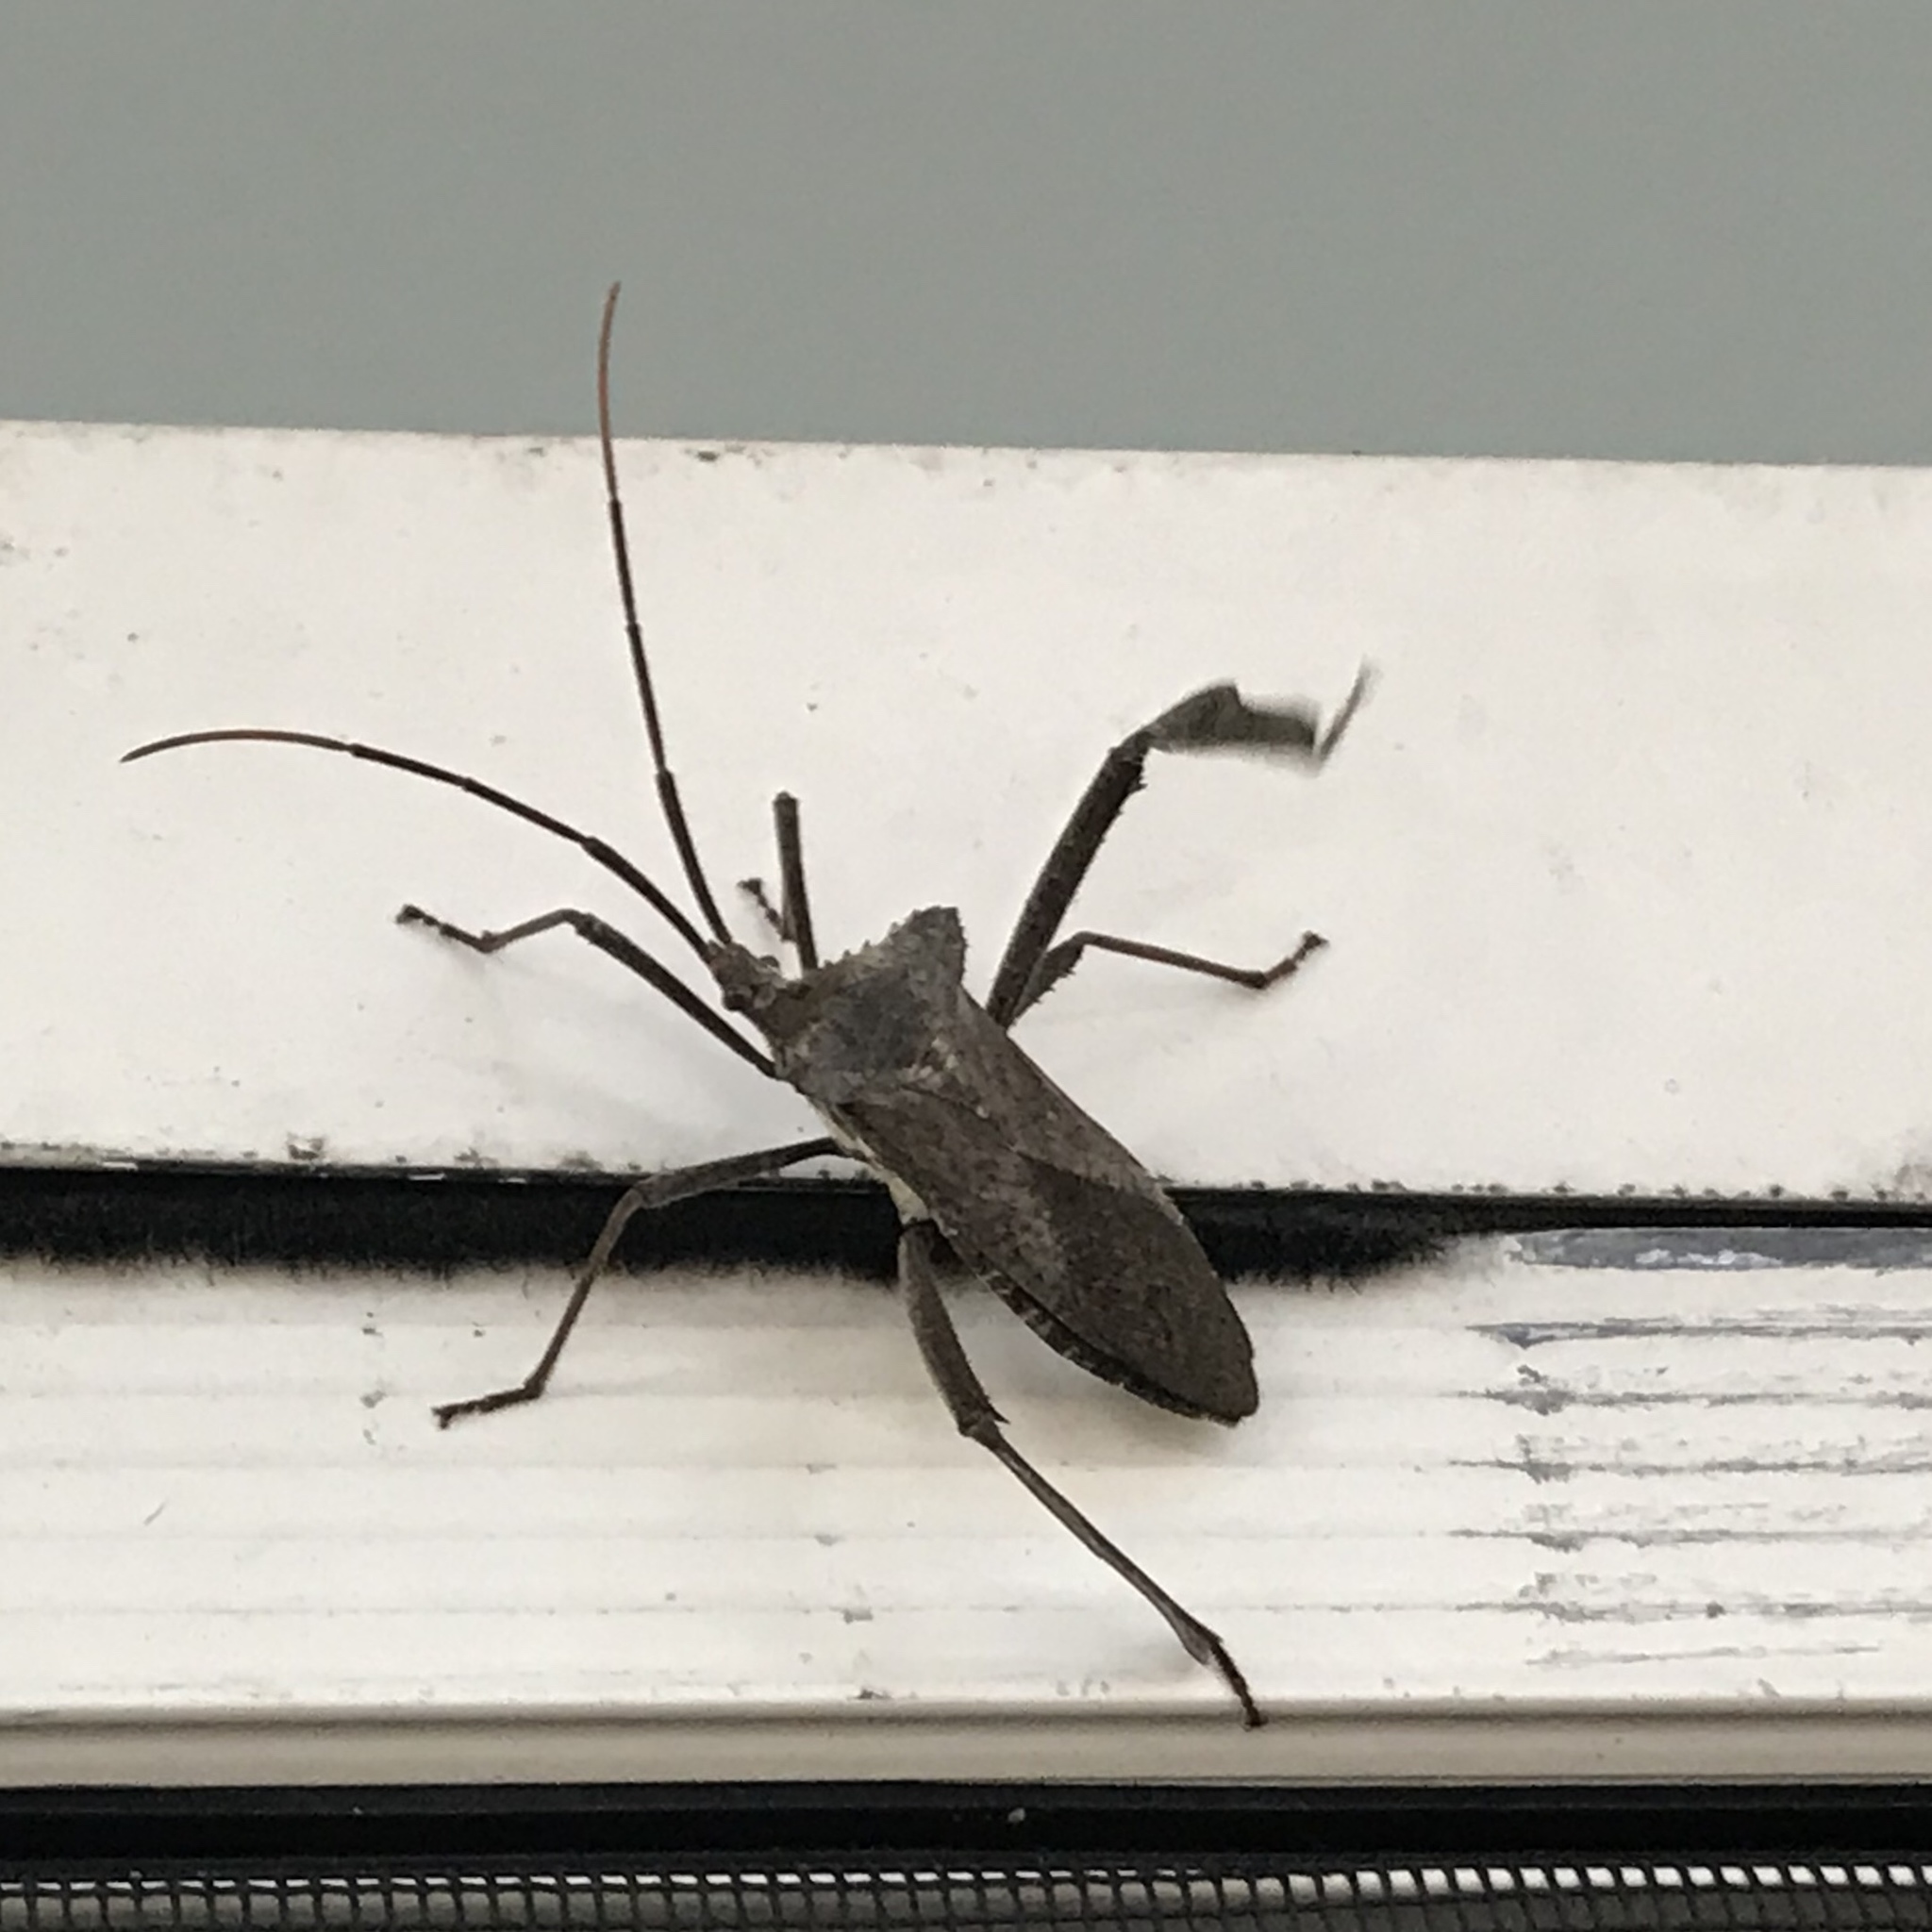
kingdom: Animalia
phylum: Arthropoda
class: Insecta
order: Hemiptera
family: Coreidae
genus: Acanthocephala
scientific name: Acanthocephala declivis
